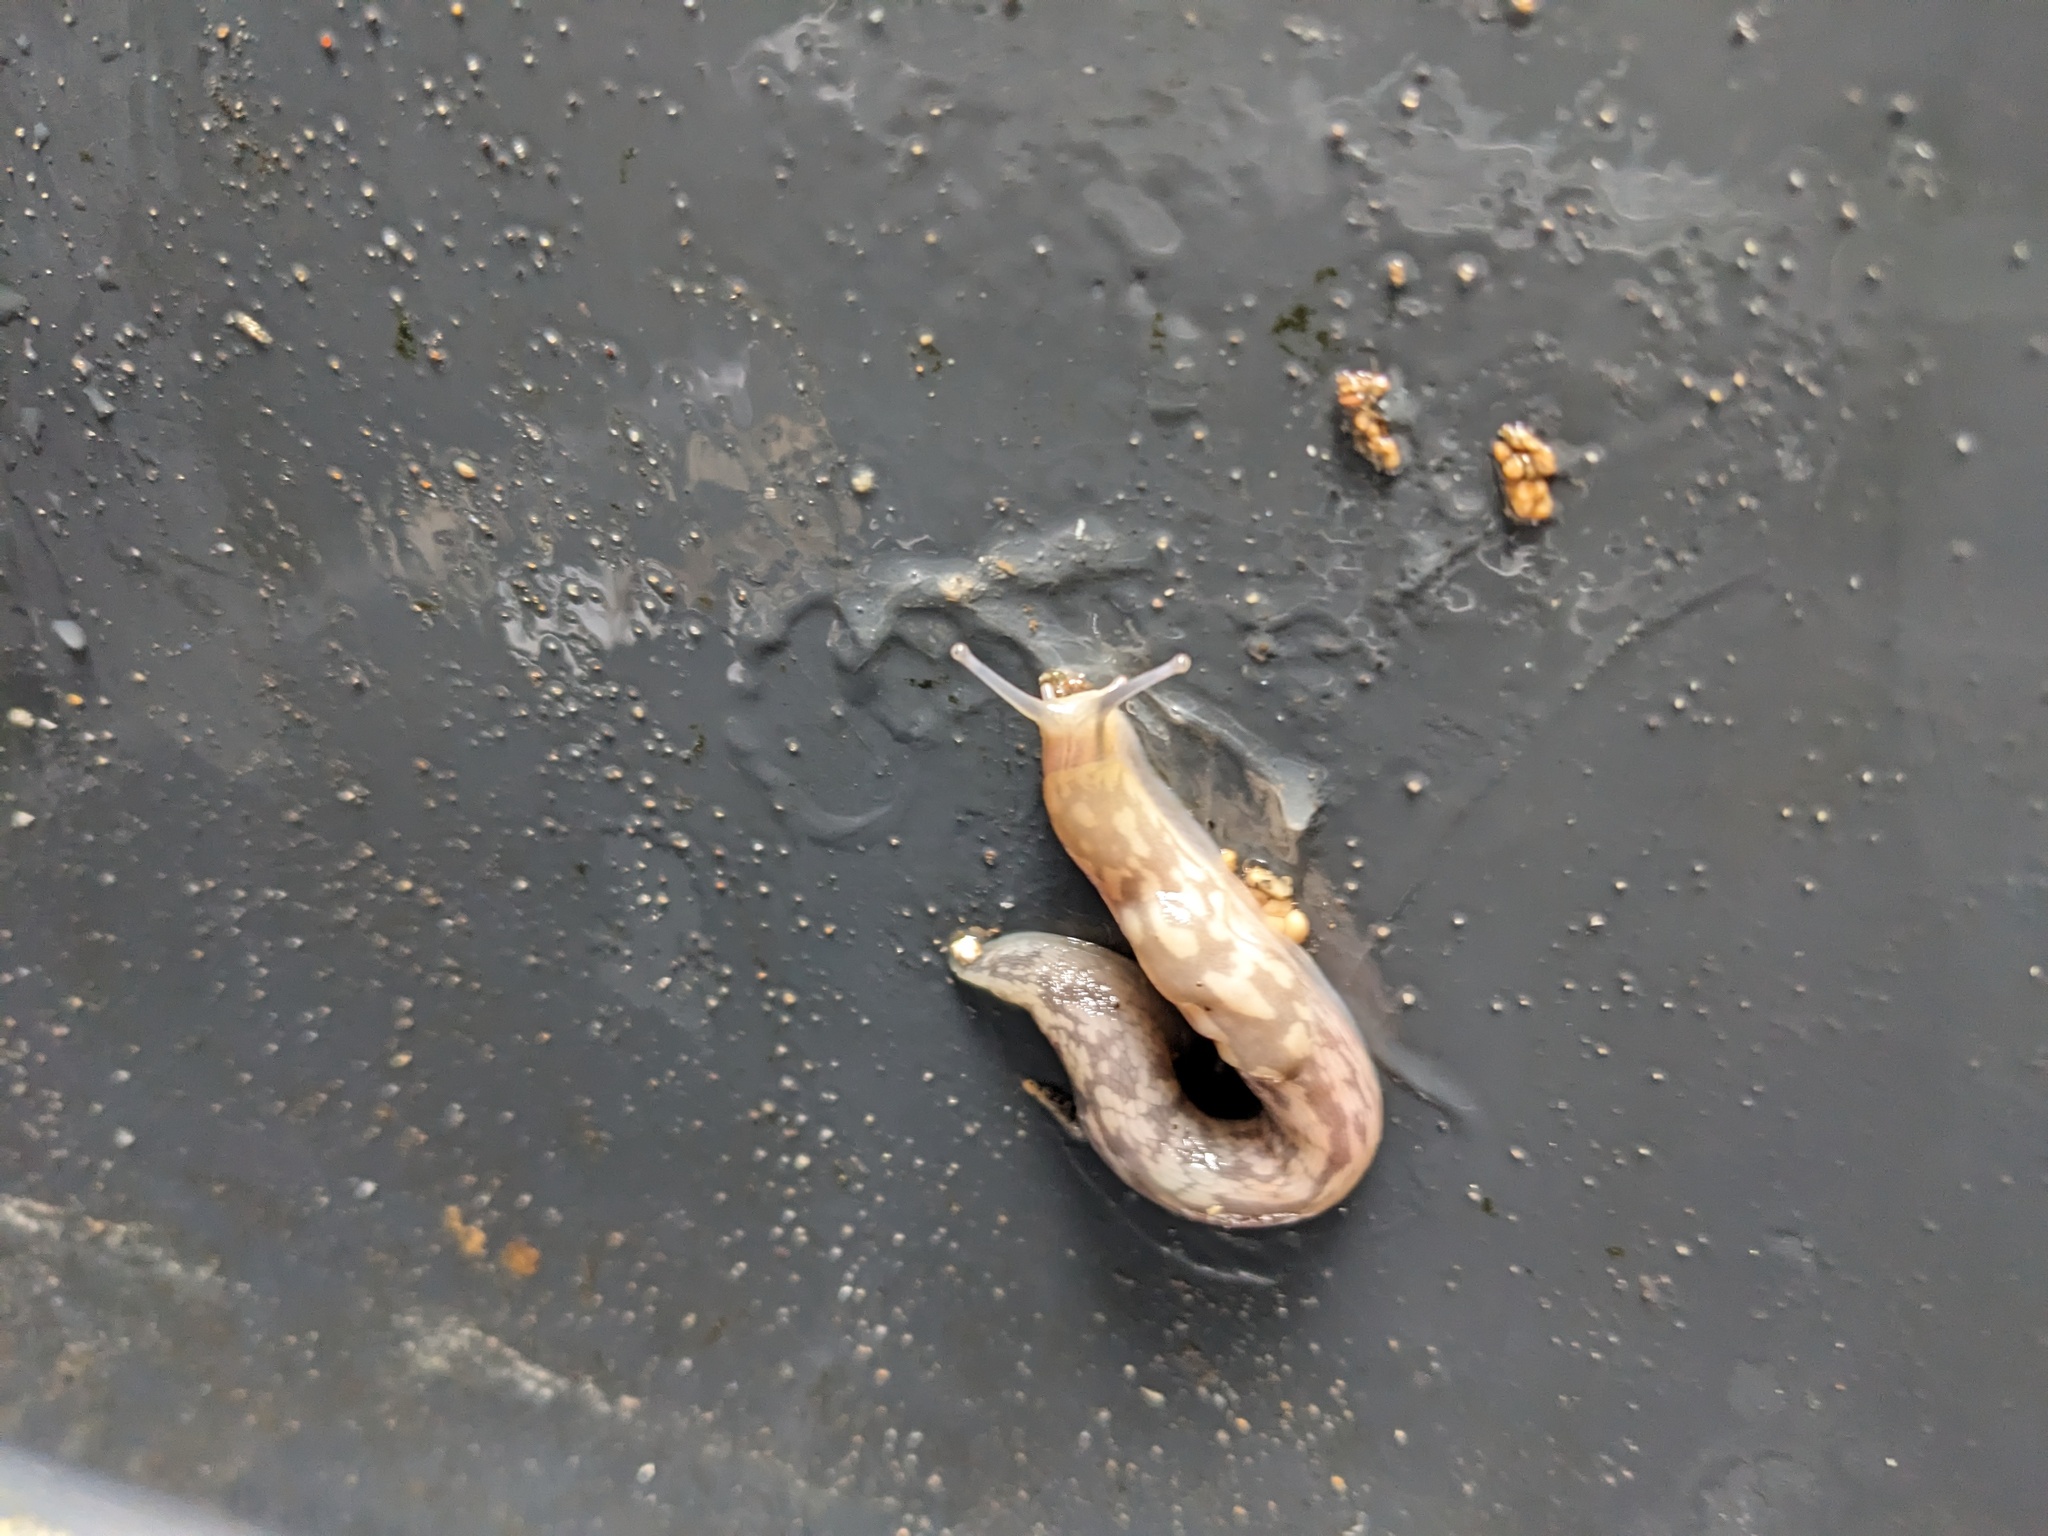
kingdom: Animalia
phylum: Mollusca
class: Gastropoda
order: Stylommatophora
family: Limacidae
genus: Limacus
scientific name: Limacus maculatus
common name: Irish yellow slug
